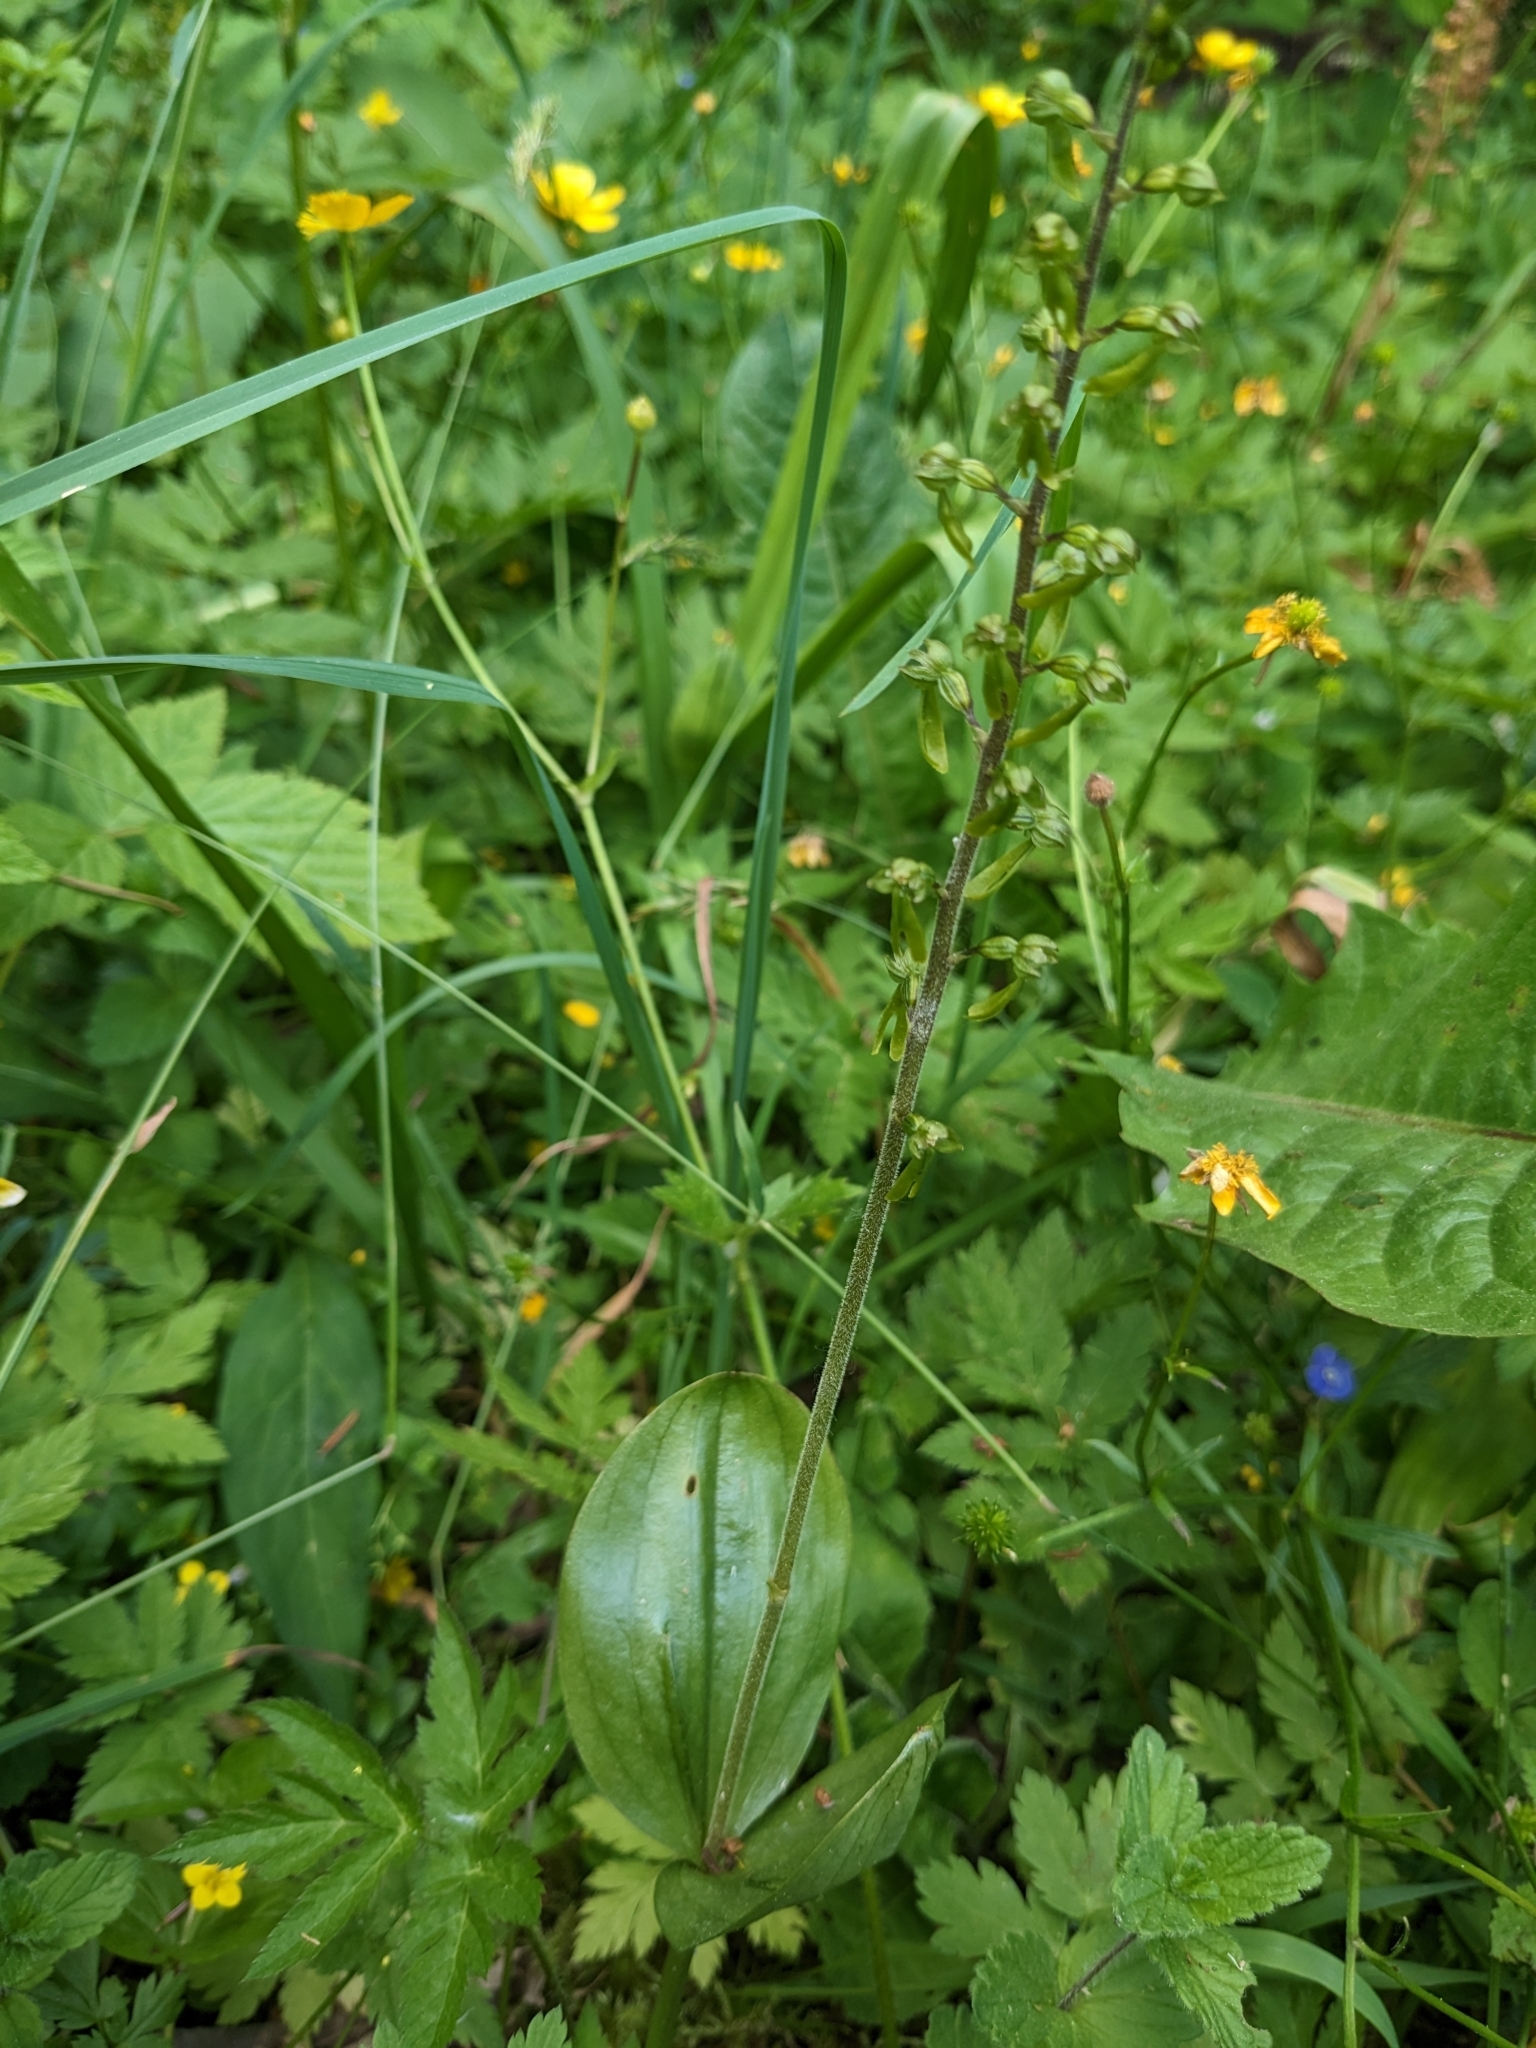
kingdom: Plantae
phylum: Tracheophyta
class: Liliopsida
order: Asparagales
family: Orchidaceae
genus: Neottia
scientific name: Neottia ovata
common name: Common twayblade
